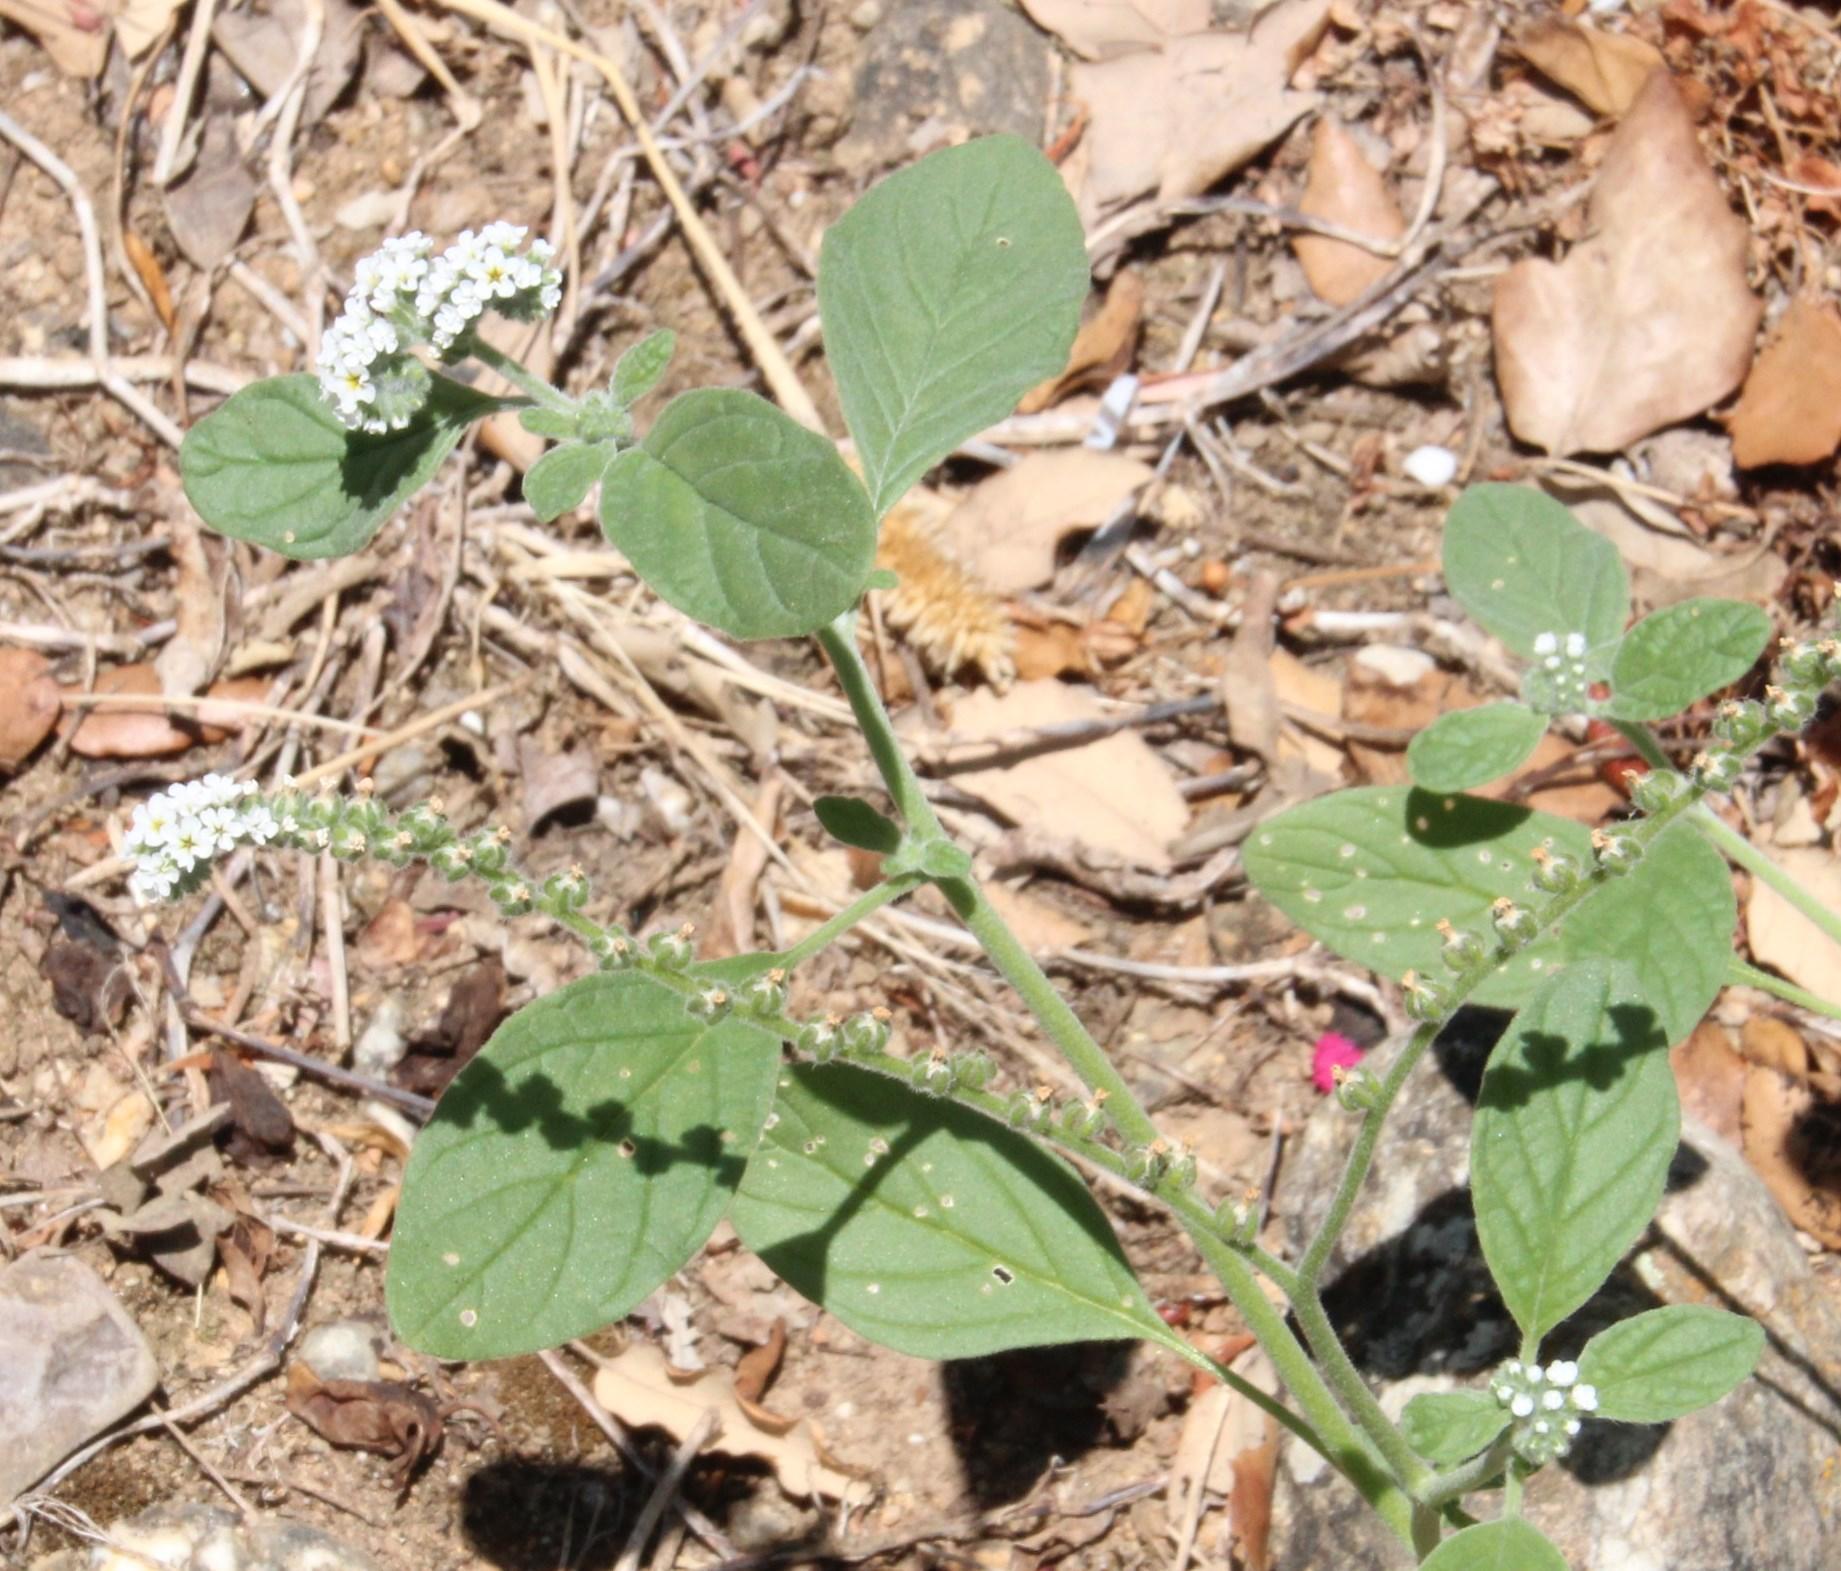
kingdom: Plantae
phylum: Tracheophyta
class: Magnoliopsida
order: Boraginales
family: Heliotropiaceae
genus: Heliotropium
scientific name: Heliotropium europaeum
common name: European heliotrope
